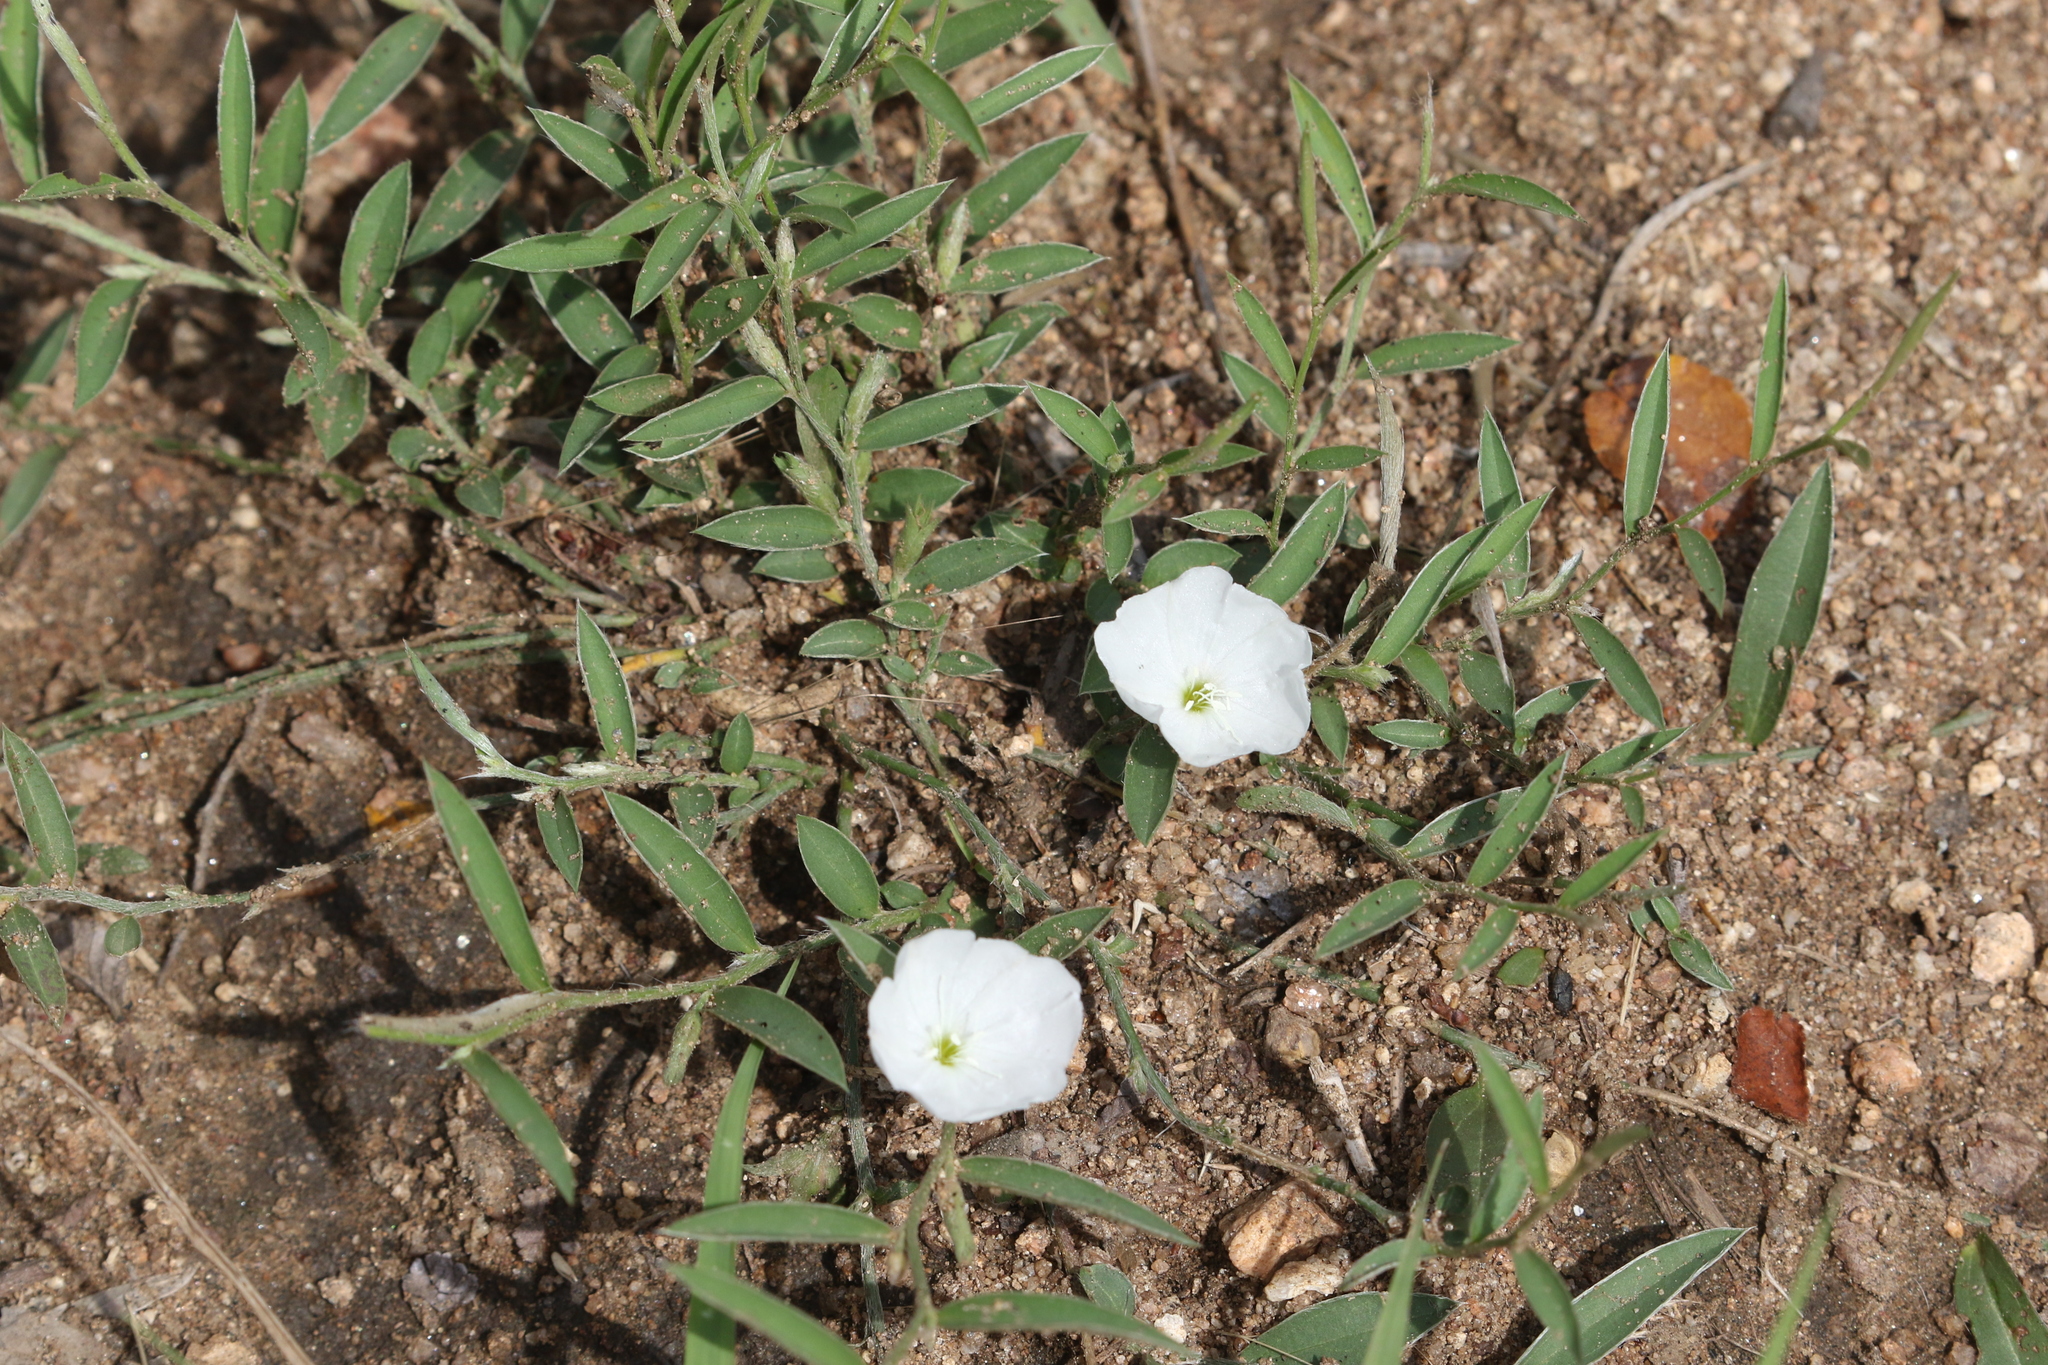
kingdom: Plantae
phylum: Tracheophyta
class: Magnoliopsida
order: Solanales
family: Convolvulaceae
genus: Evolvulus
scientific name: Evolvulus sericeus
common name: Blue dots
